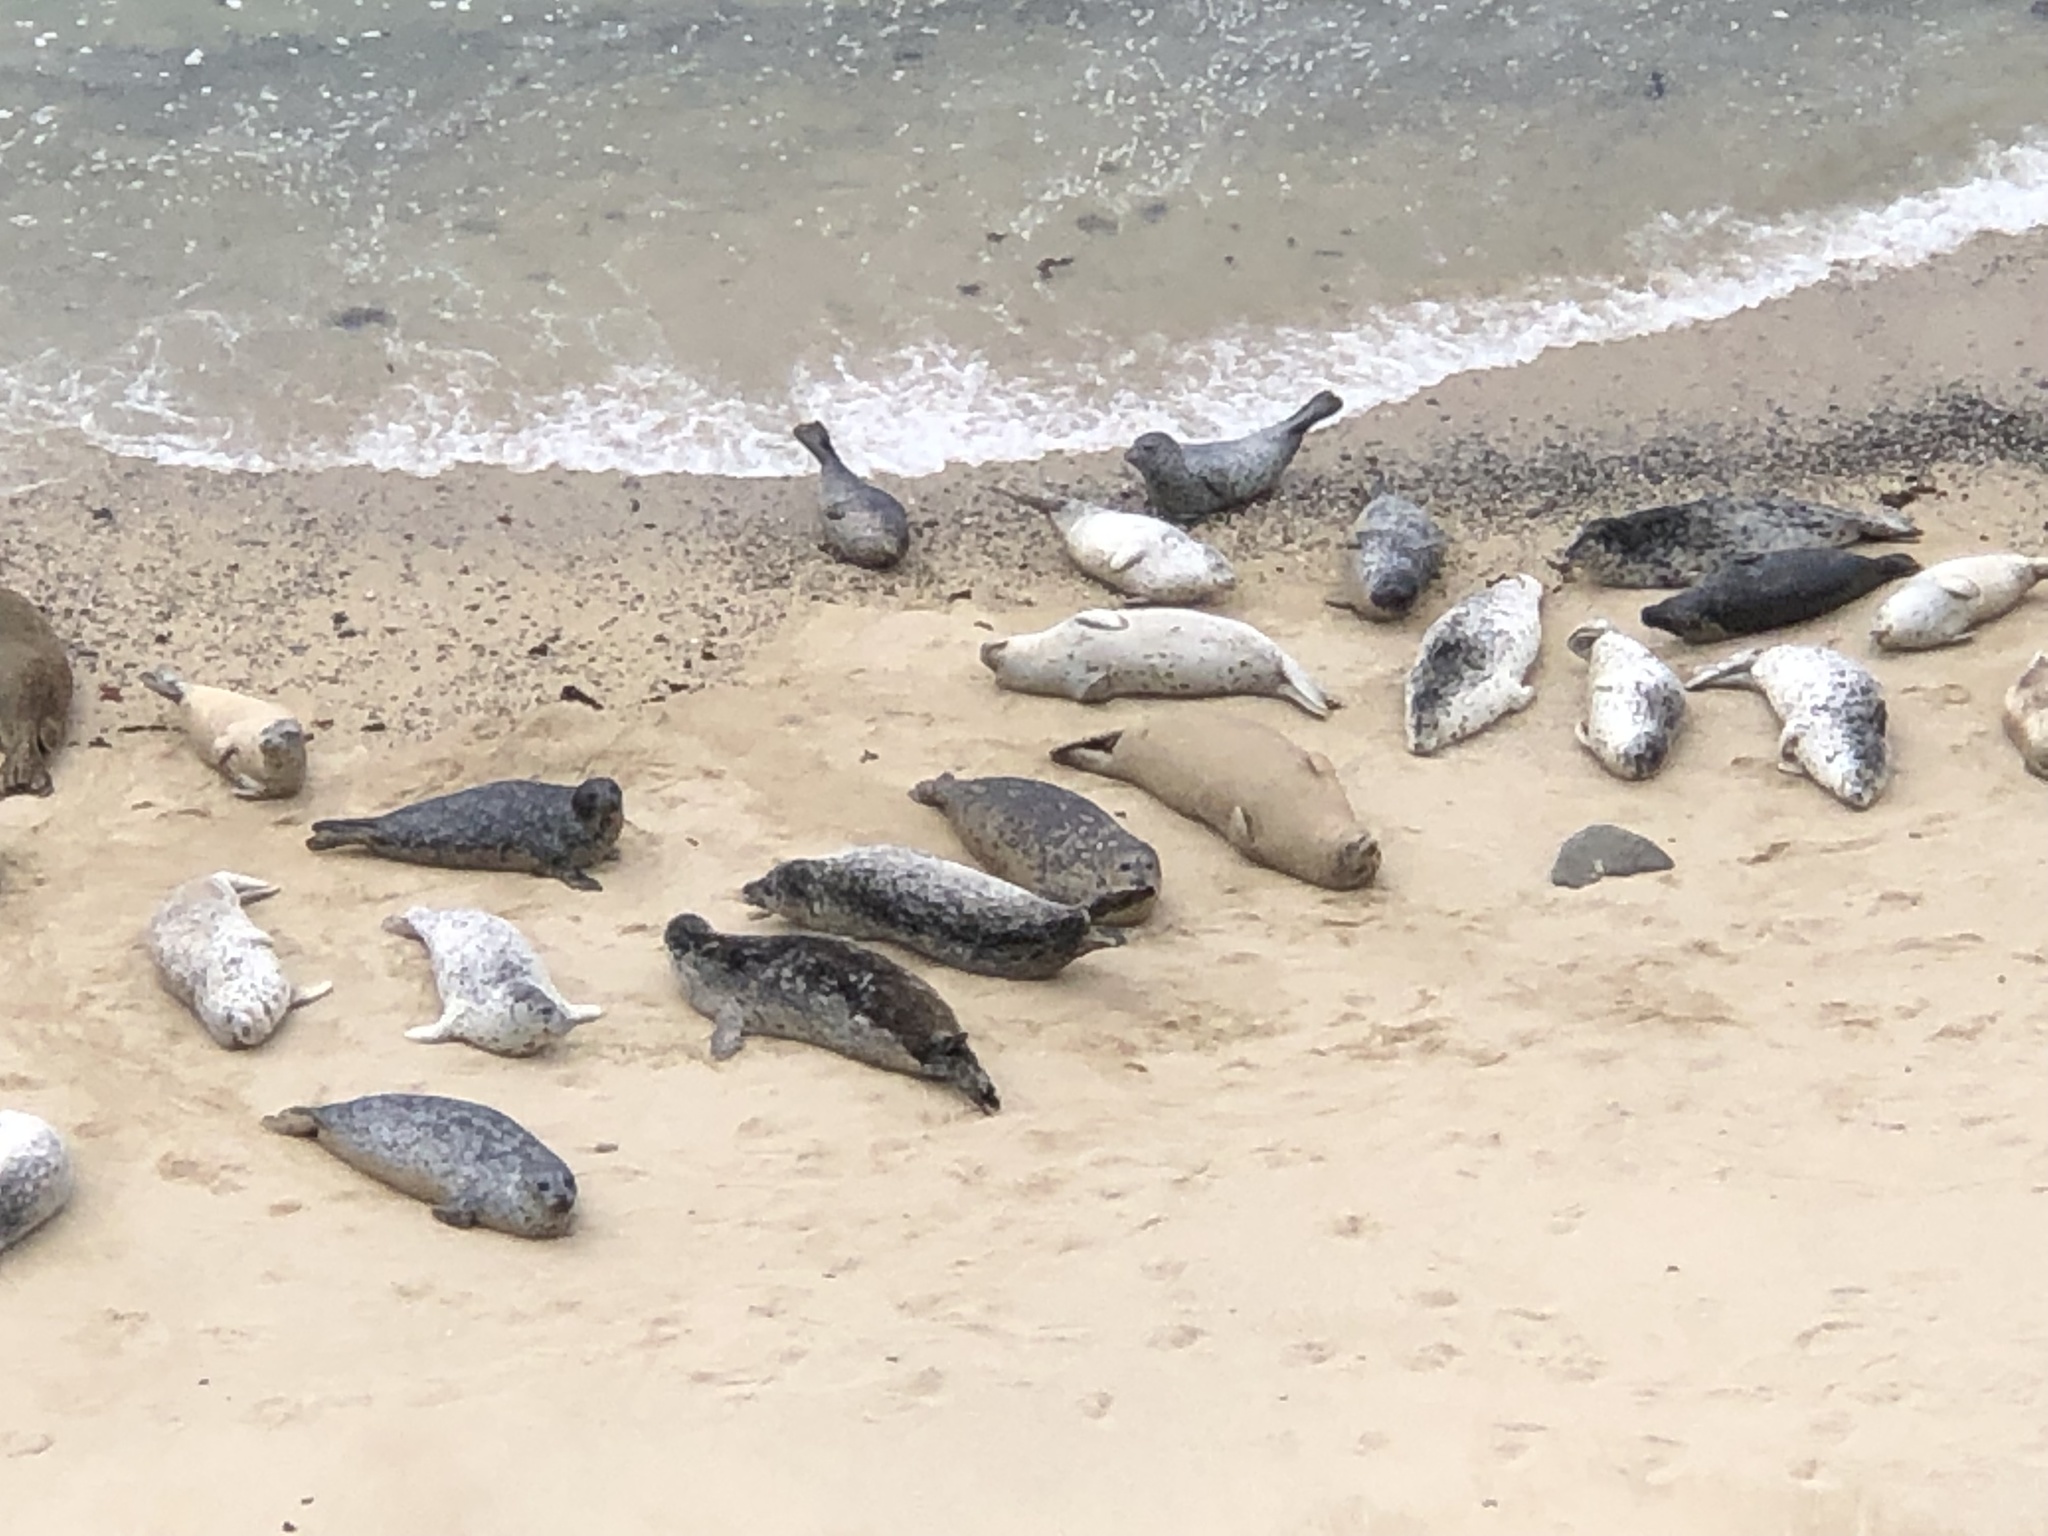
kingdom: Animalia
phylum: Chordata
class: Mammalia
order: Carnivora
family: Phocidae
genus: Phoca
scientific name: Phoca vitulina
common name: Harbor seal
